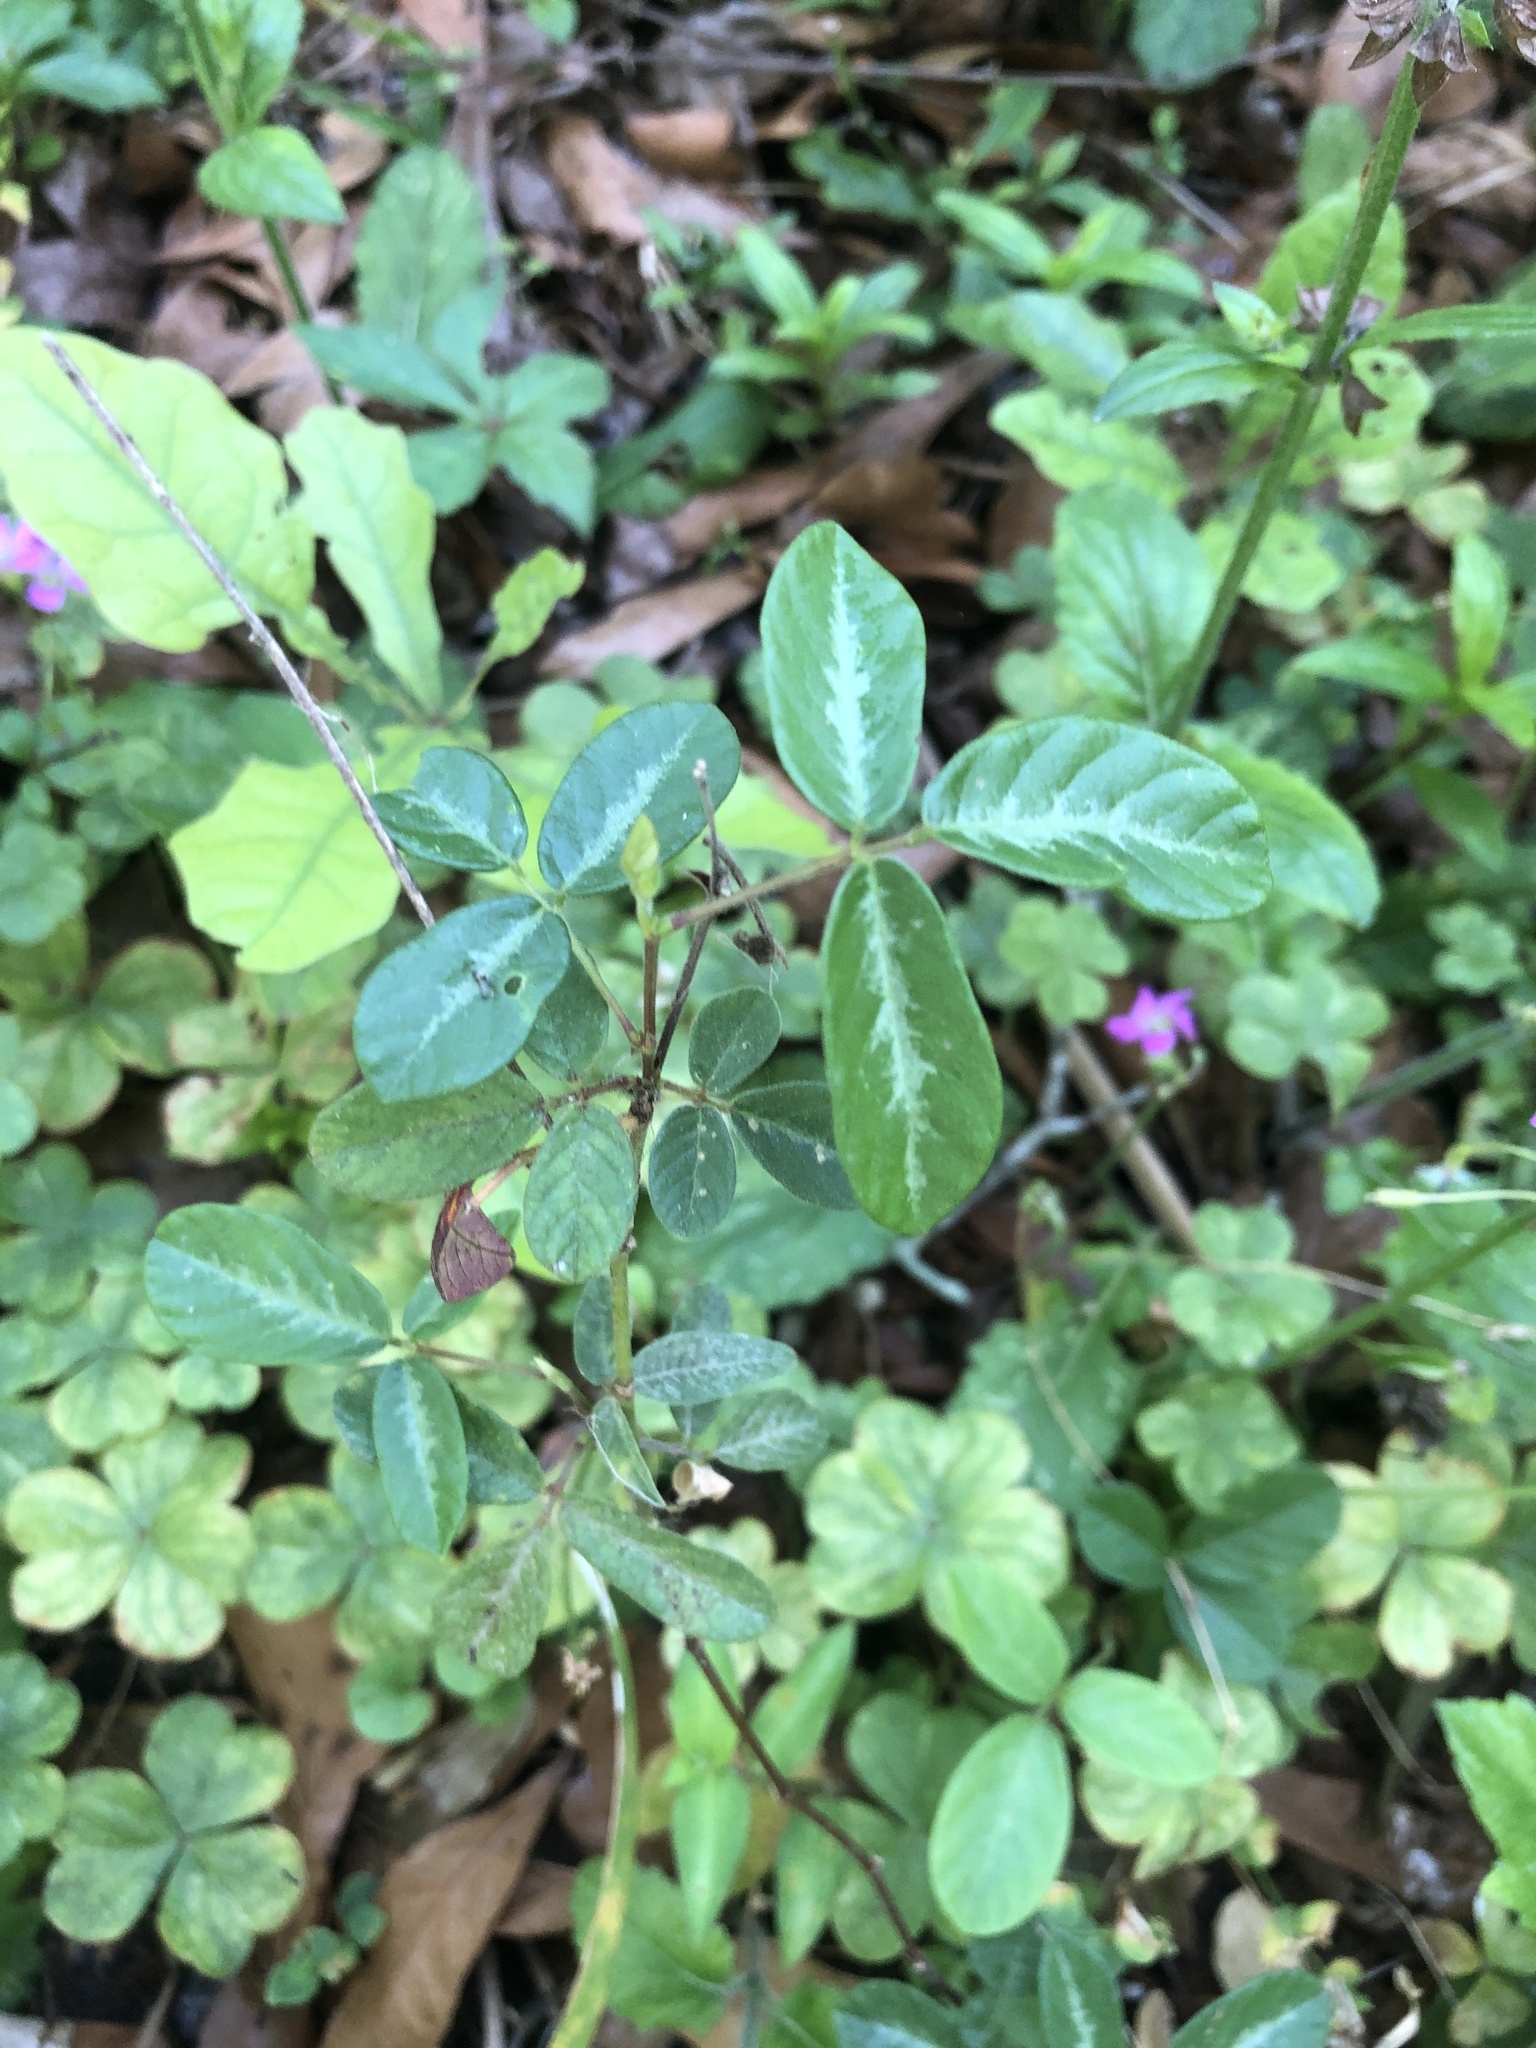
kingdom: Plantae
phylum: Tracheophyta
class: Magnoliopsida
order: Fabales
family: Fabaceae
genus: Desmodium
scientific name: Desmodium incanum
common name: Tickclover
